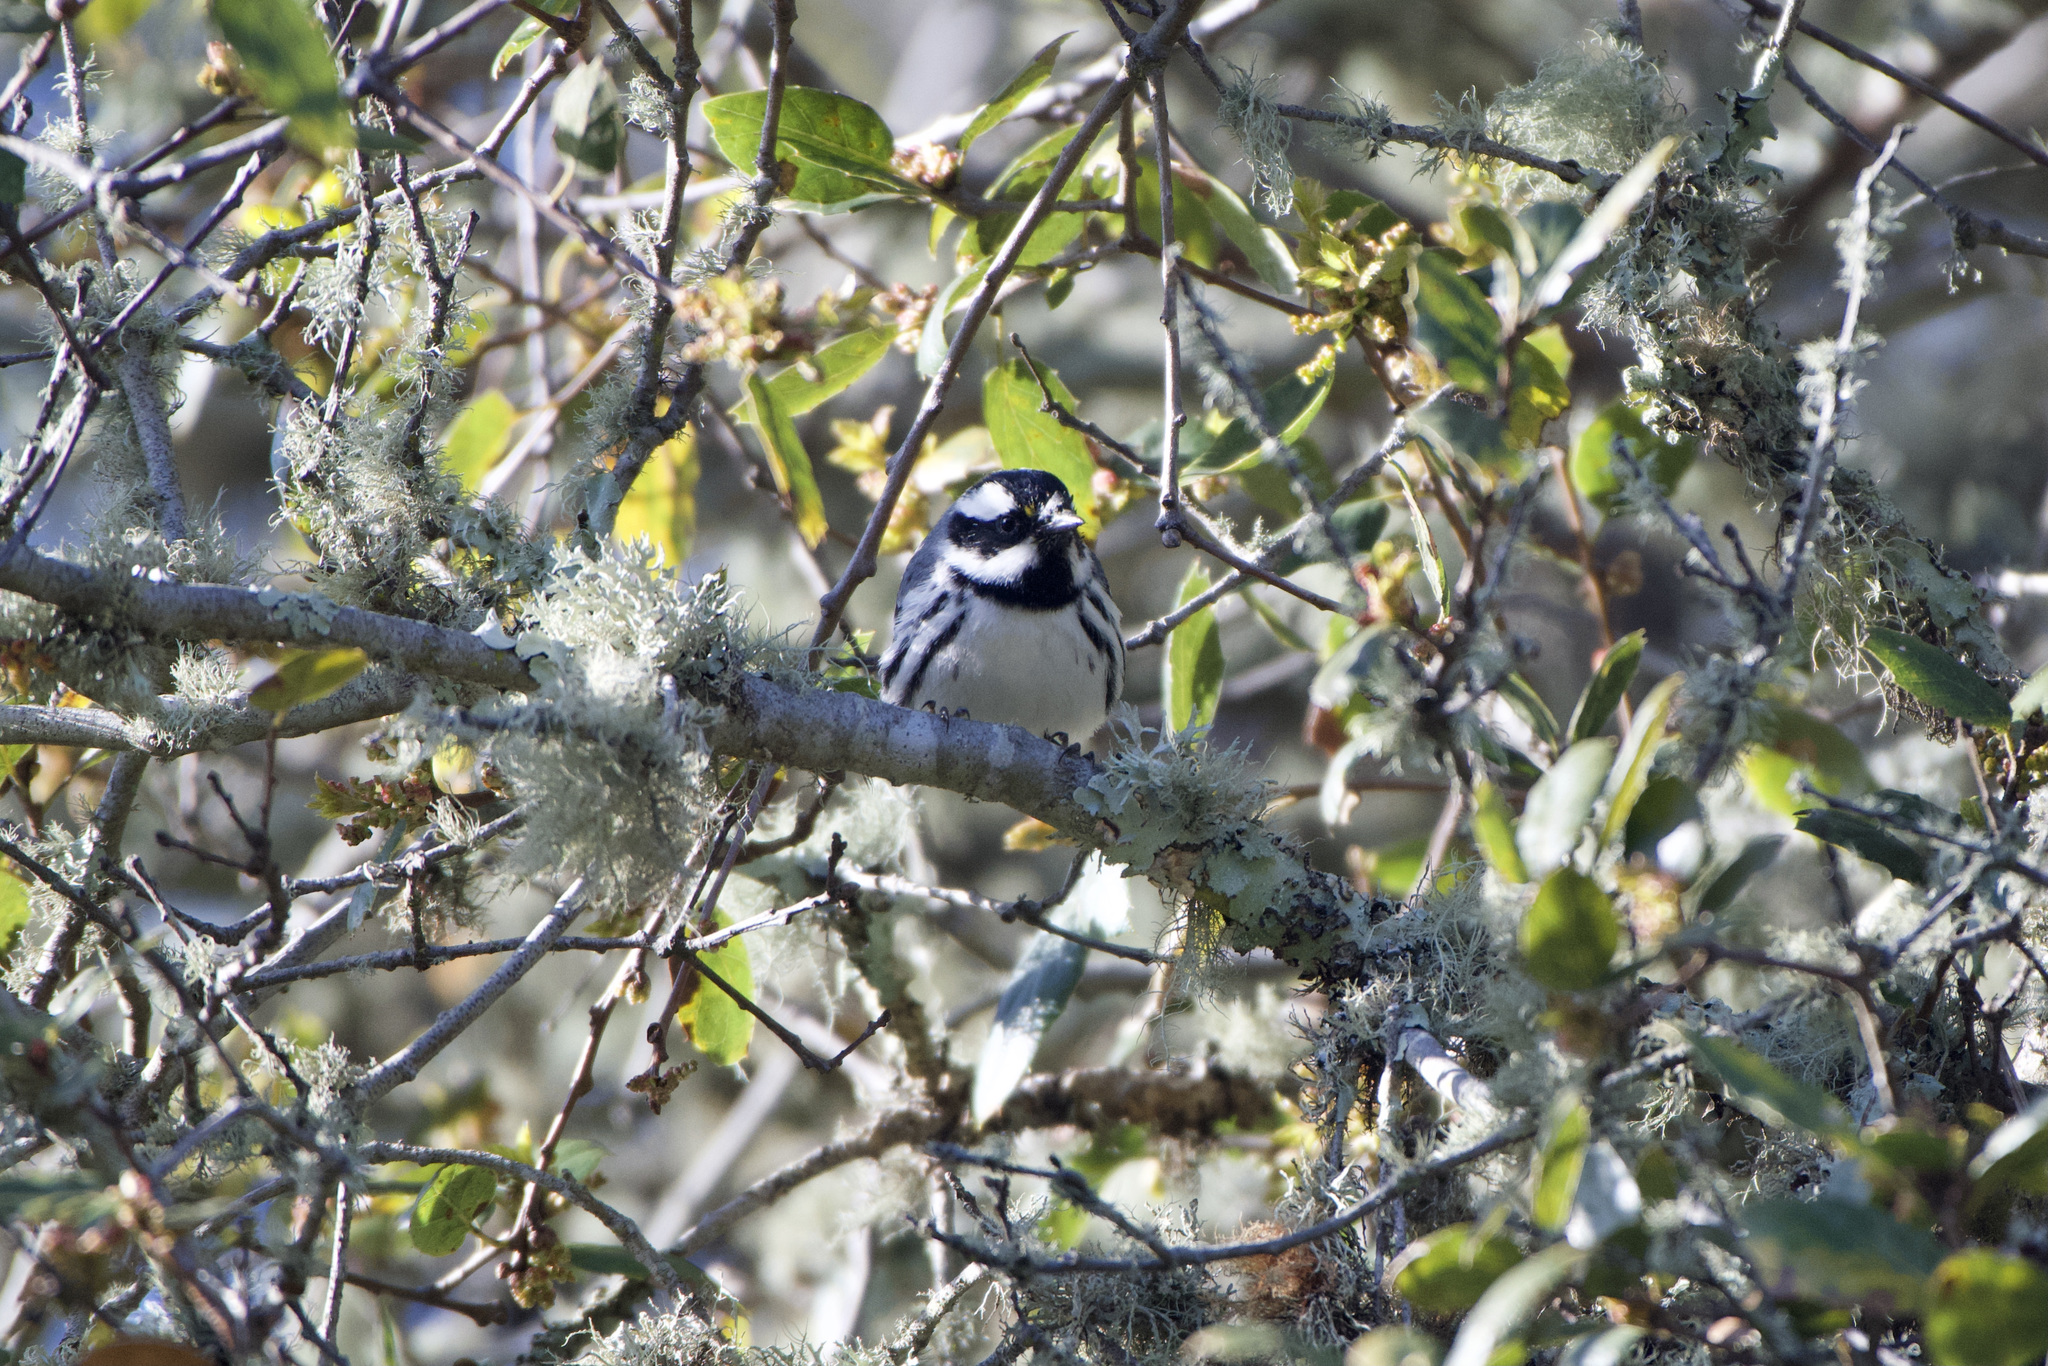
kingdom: Animalia
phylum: Chordata
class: Aves
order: Passeriformes
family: Parulidae
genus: Setophaga
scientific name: Setophaga nigrescens
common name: Black-throated gray warbler
